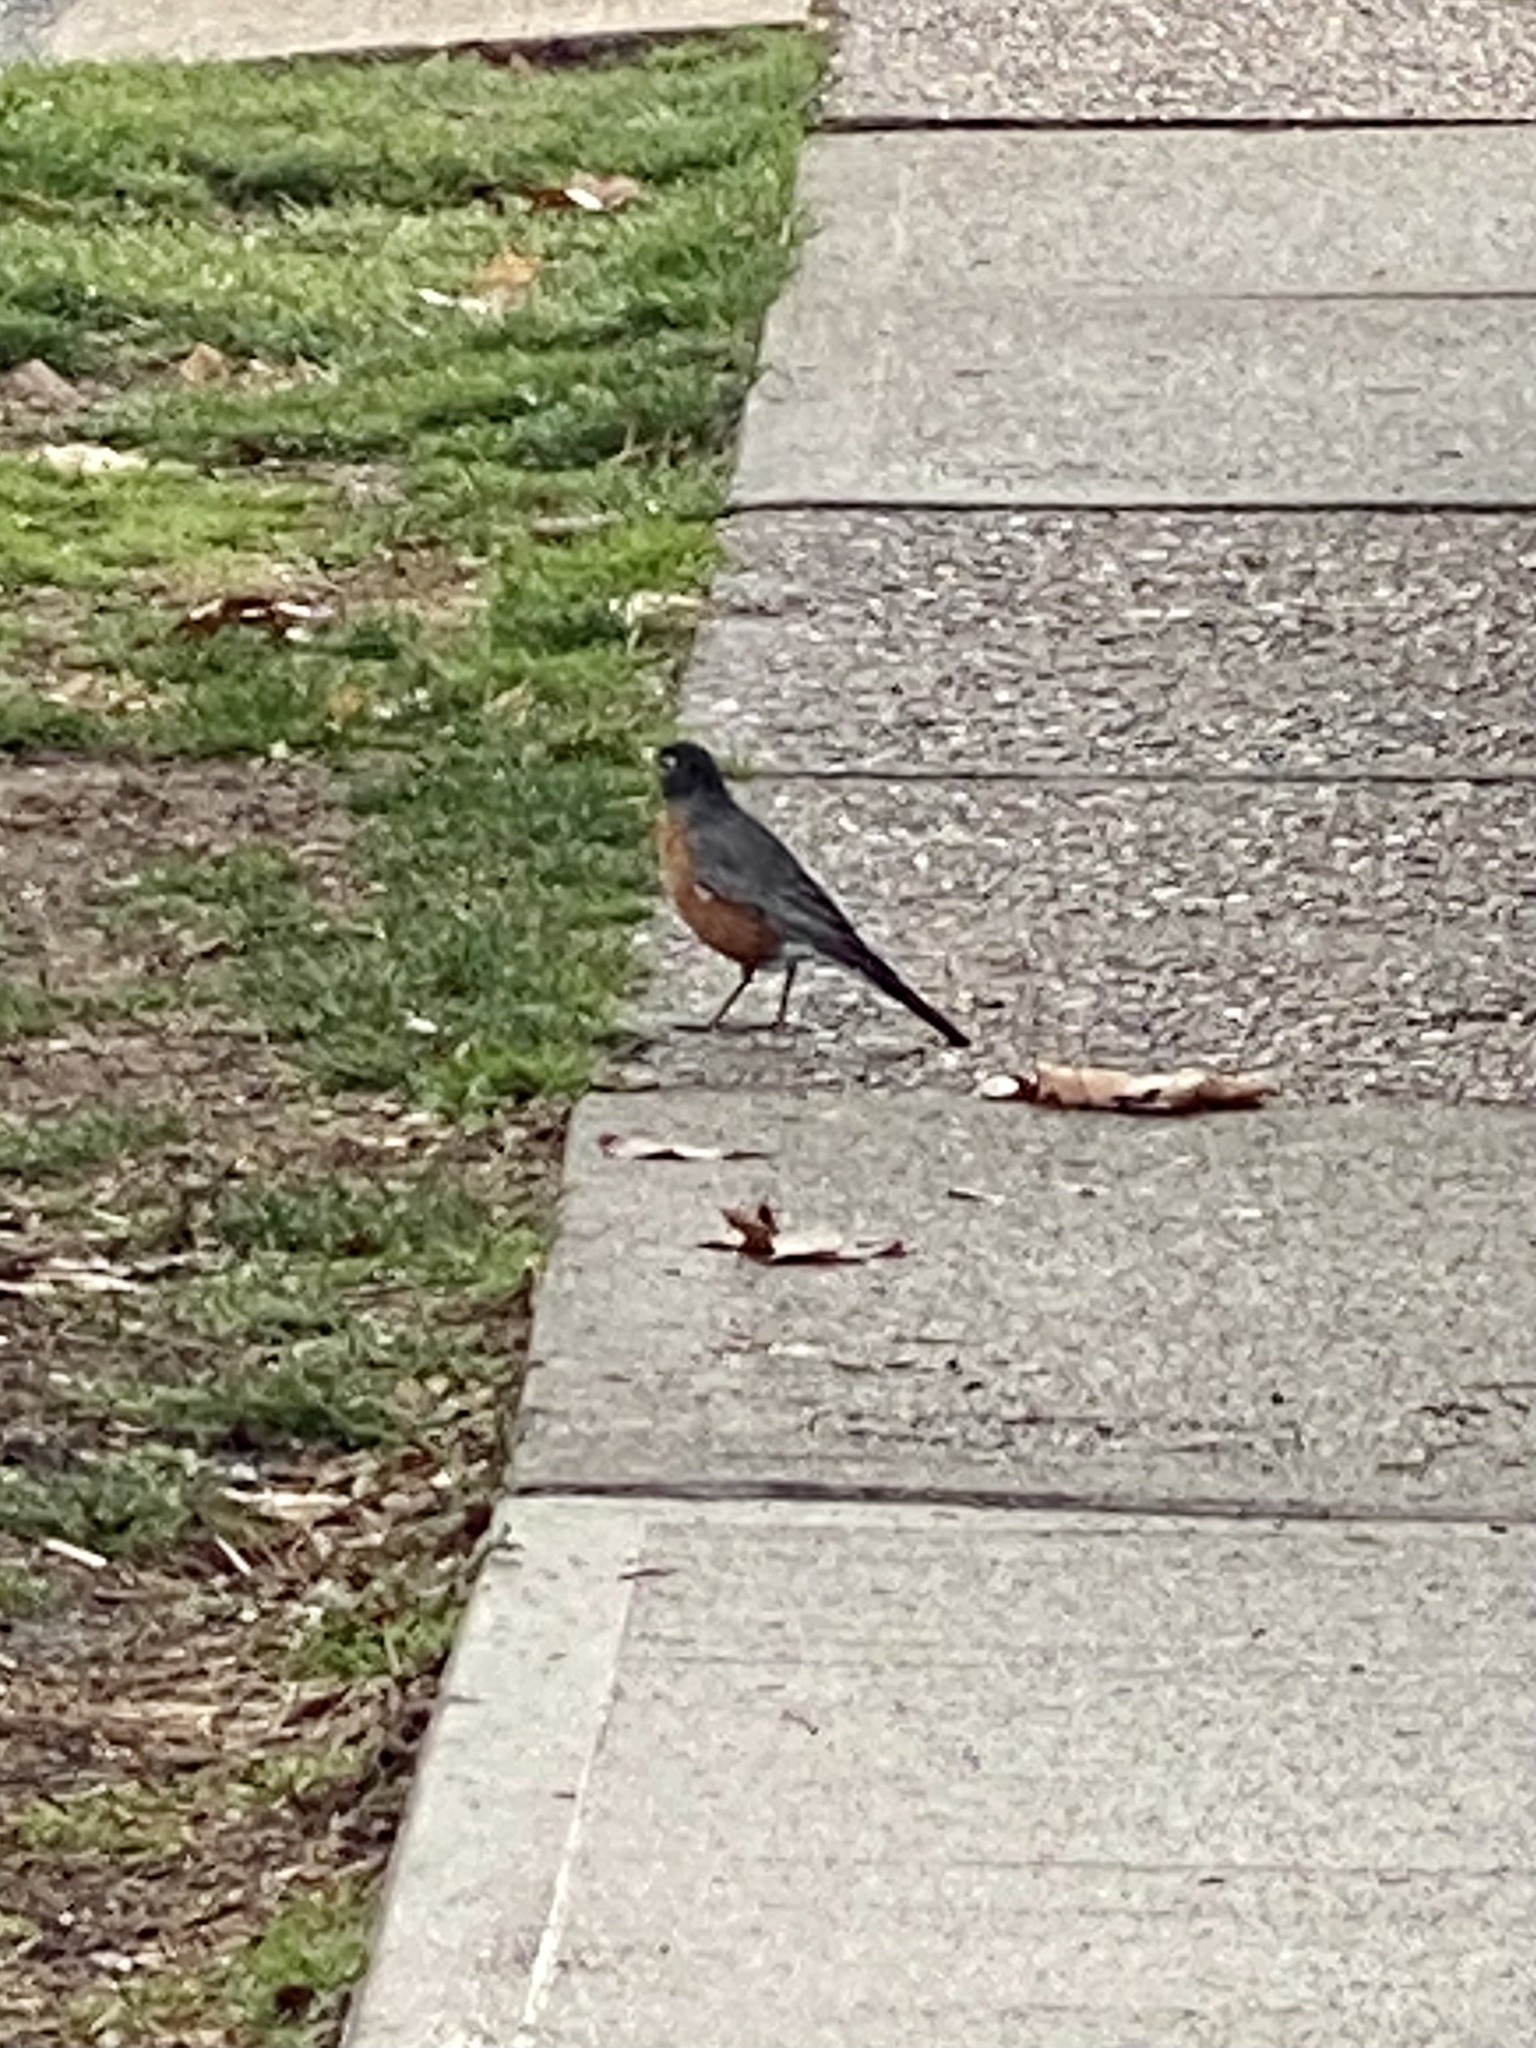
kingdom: Animalia
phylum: Chordata
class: Aves
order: Passeriformes
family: Turdidae
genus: Turdus
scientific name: Turdus migratorius
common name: American robin
